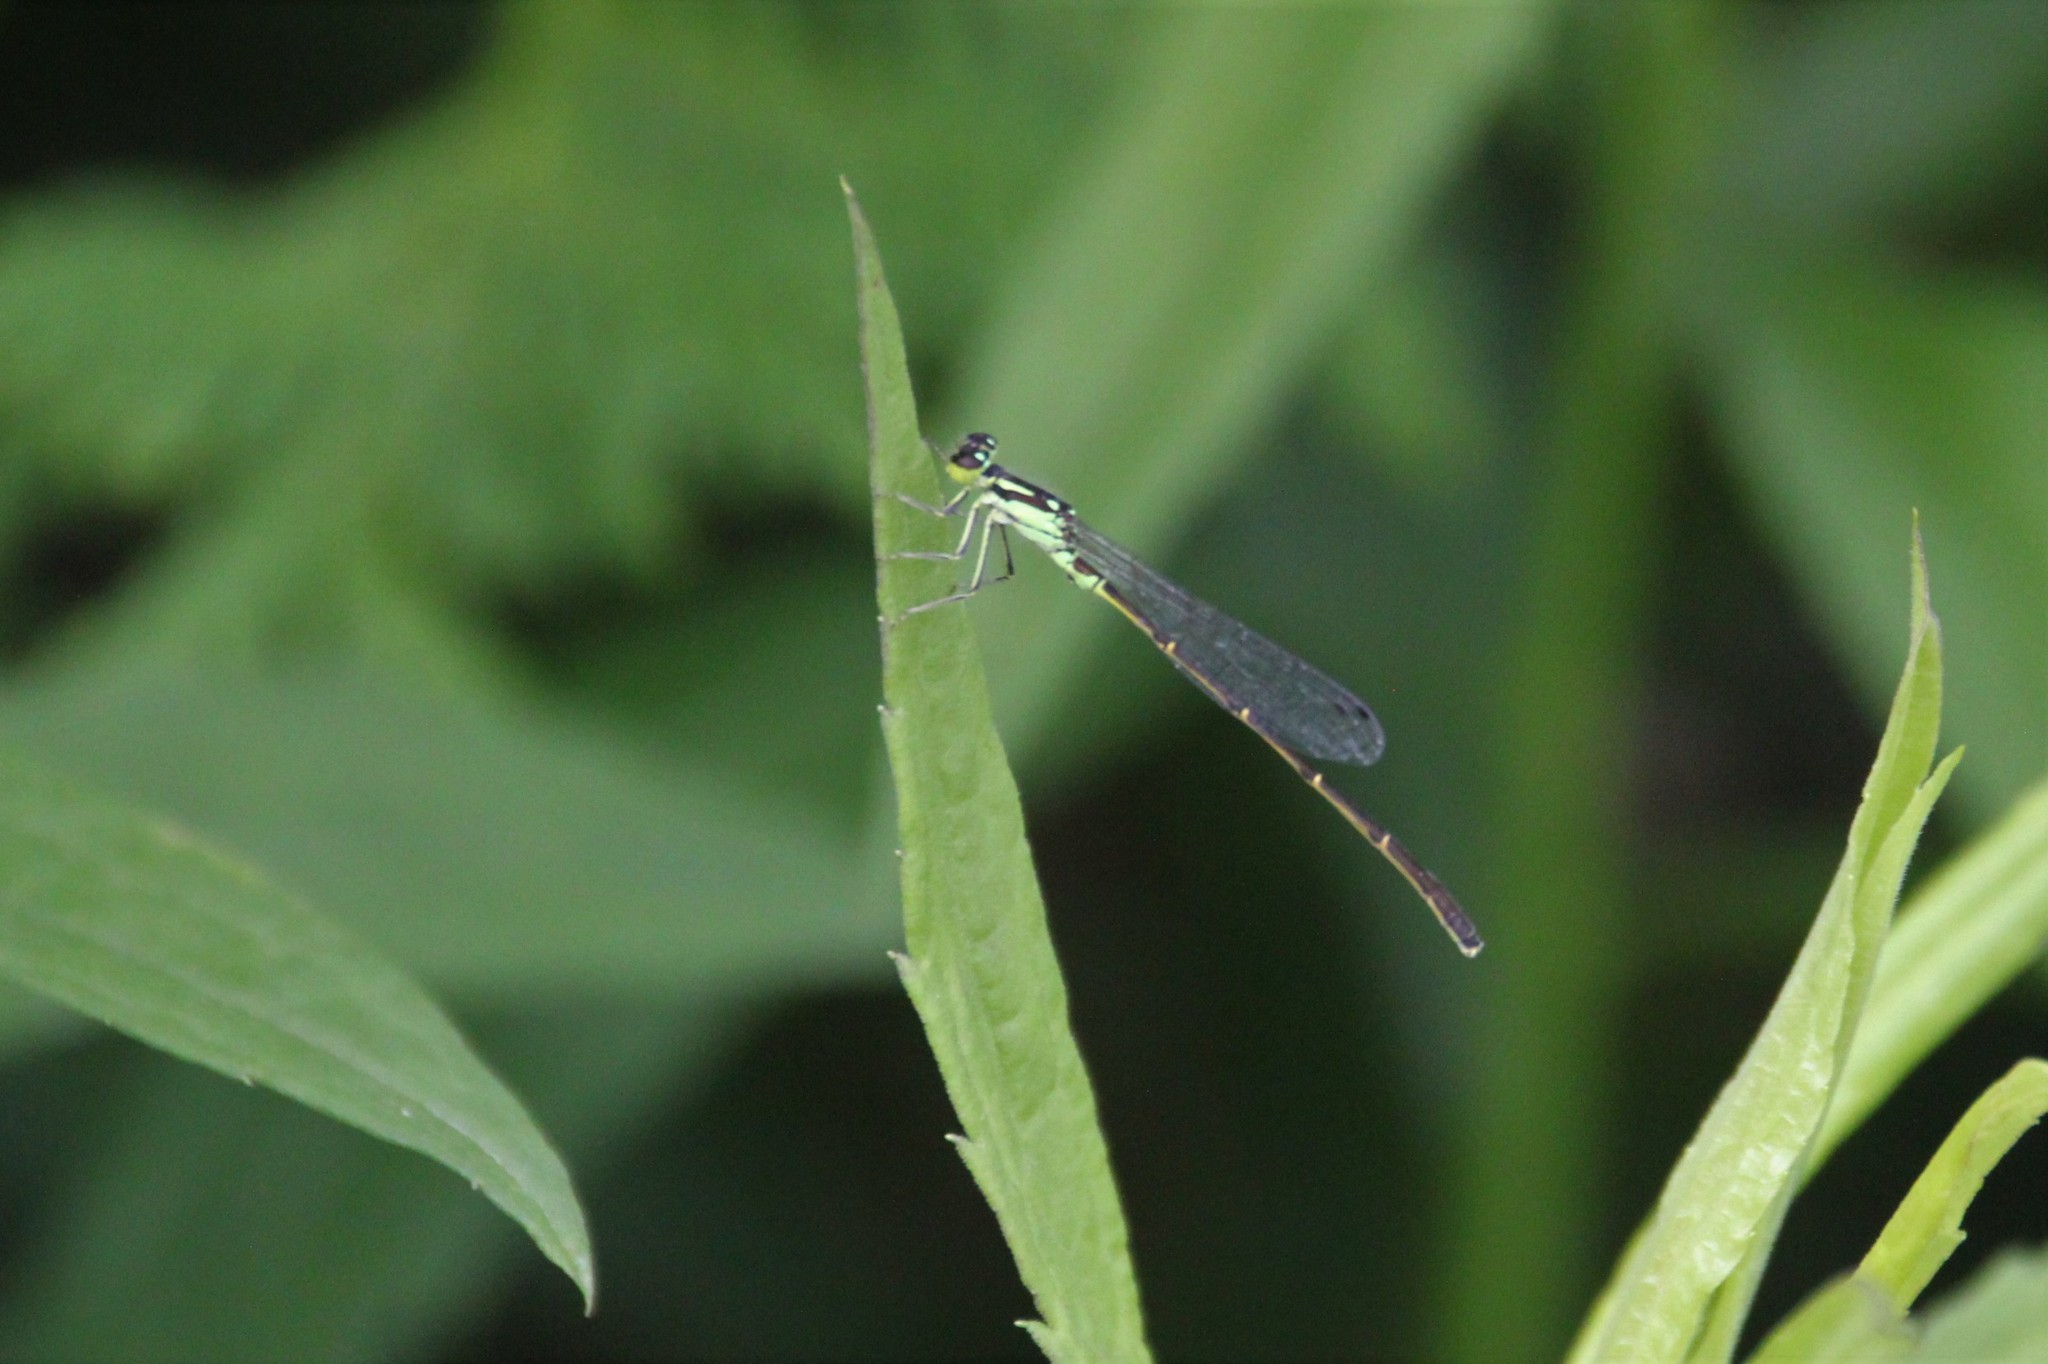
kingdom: Animalia
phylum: Arthropoda
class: Insecta
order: Odonata
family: Coenagrionidae
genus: Ischnura
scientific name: Ischnura posita
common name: Fragile forktail
